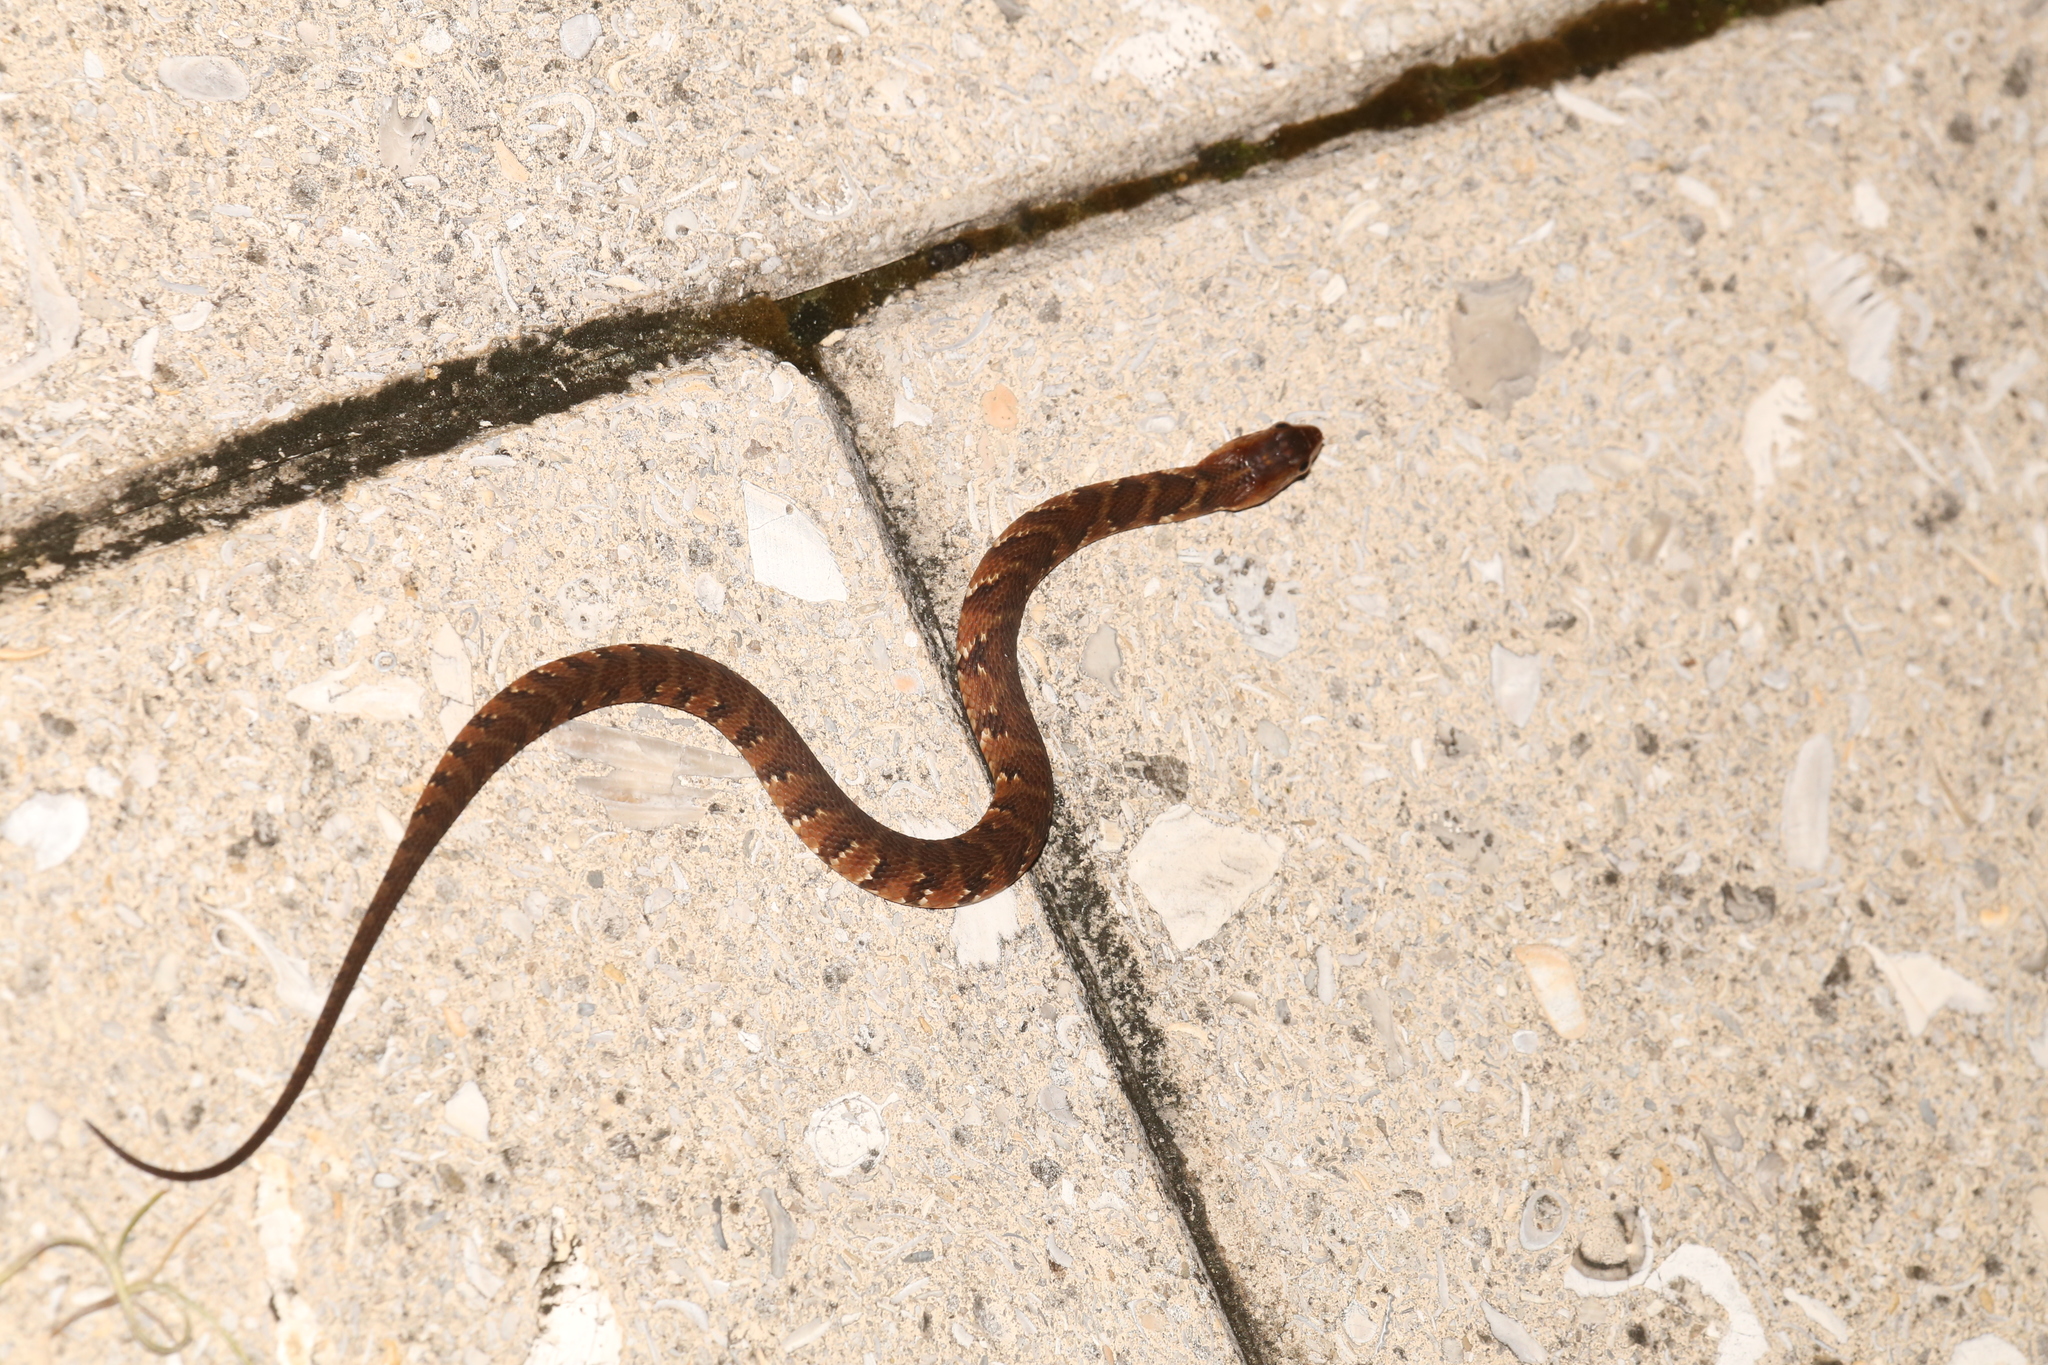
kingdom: Animalia
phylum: Chordata
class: Squamata
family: Colubridae
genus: Nerodia
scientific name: Nerodia fasciata
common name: Southern water snake
